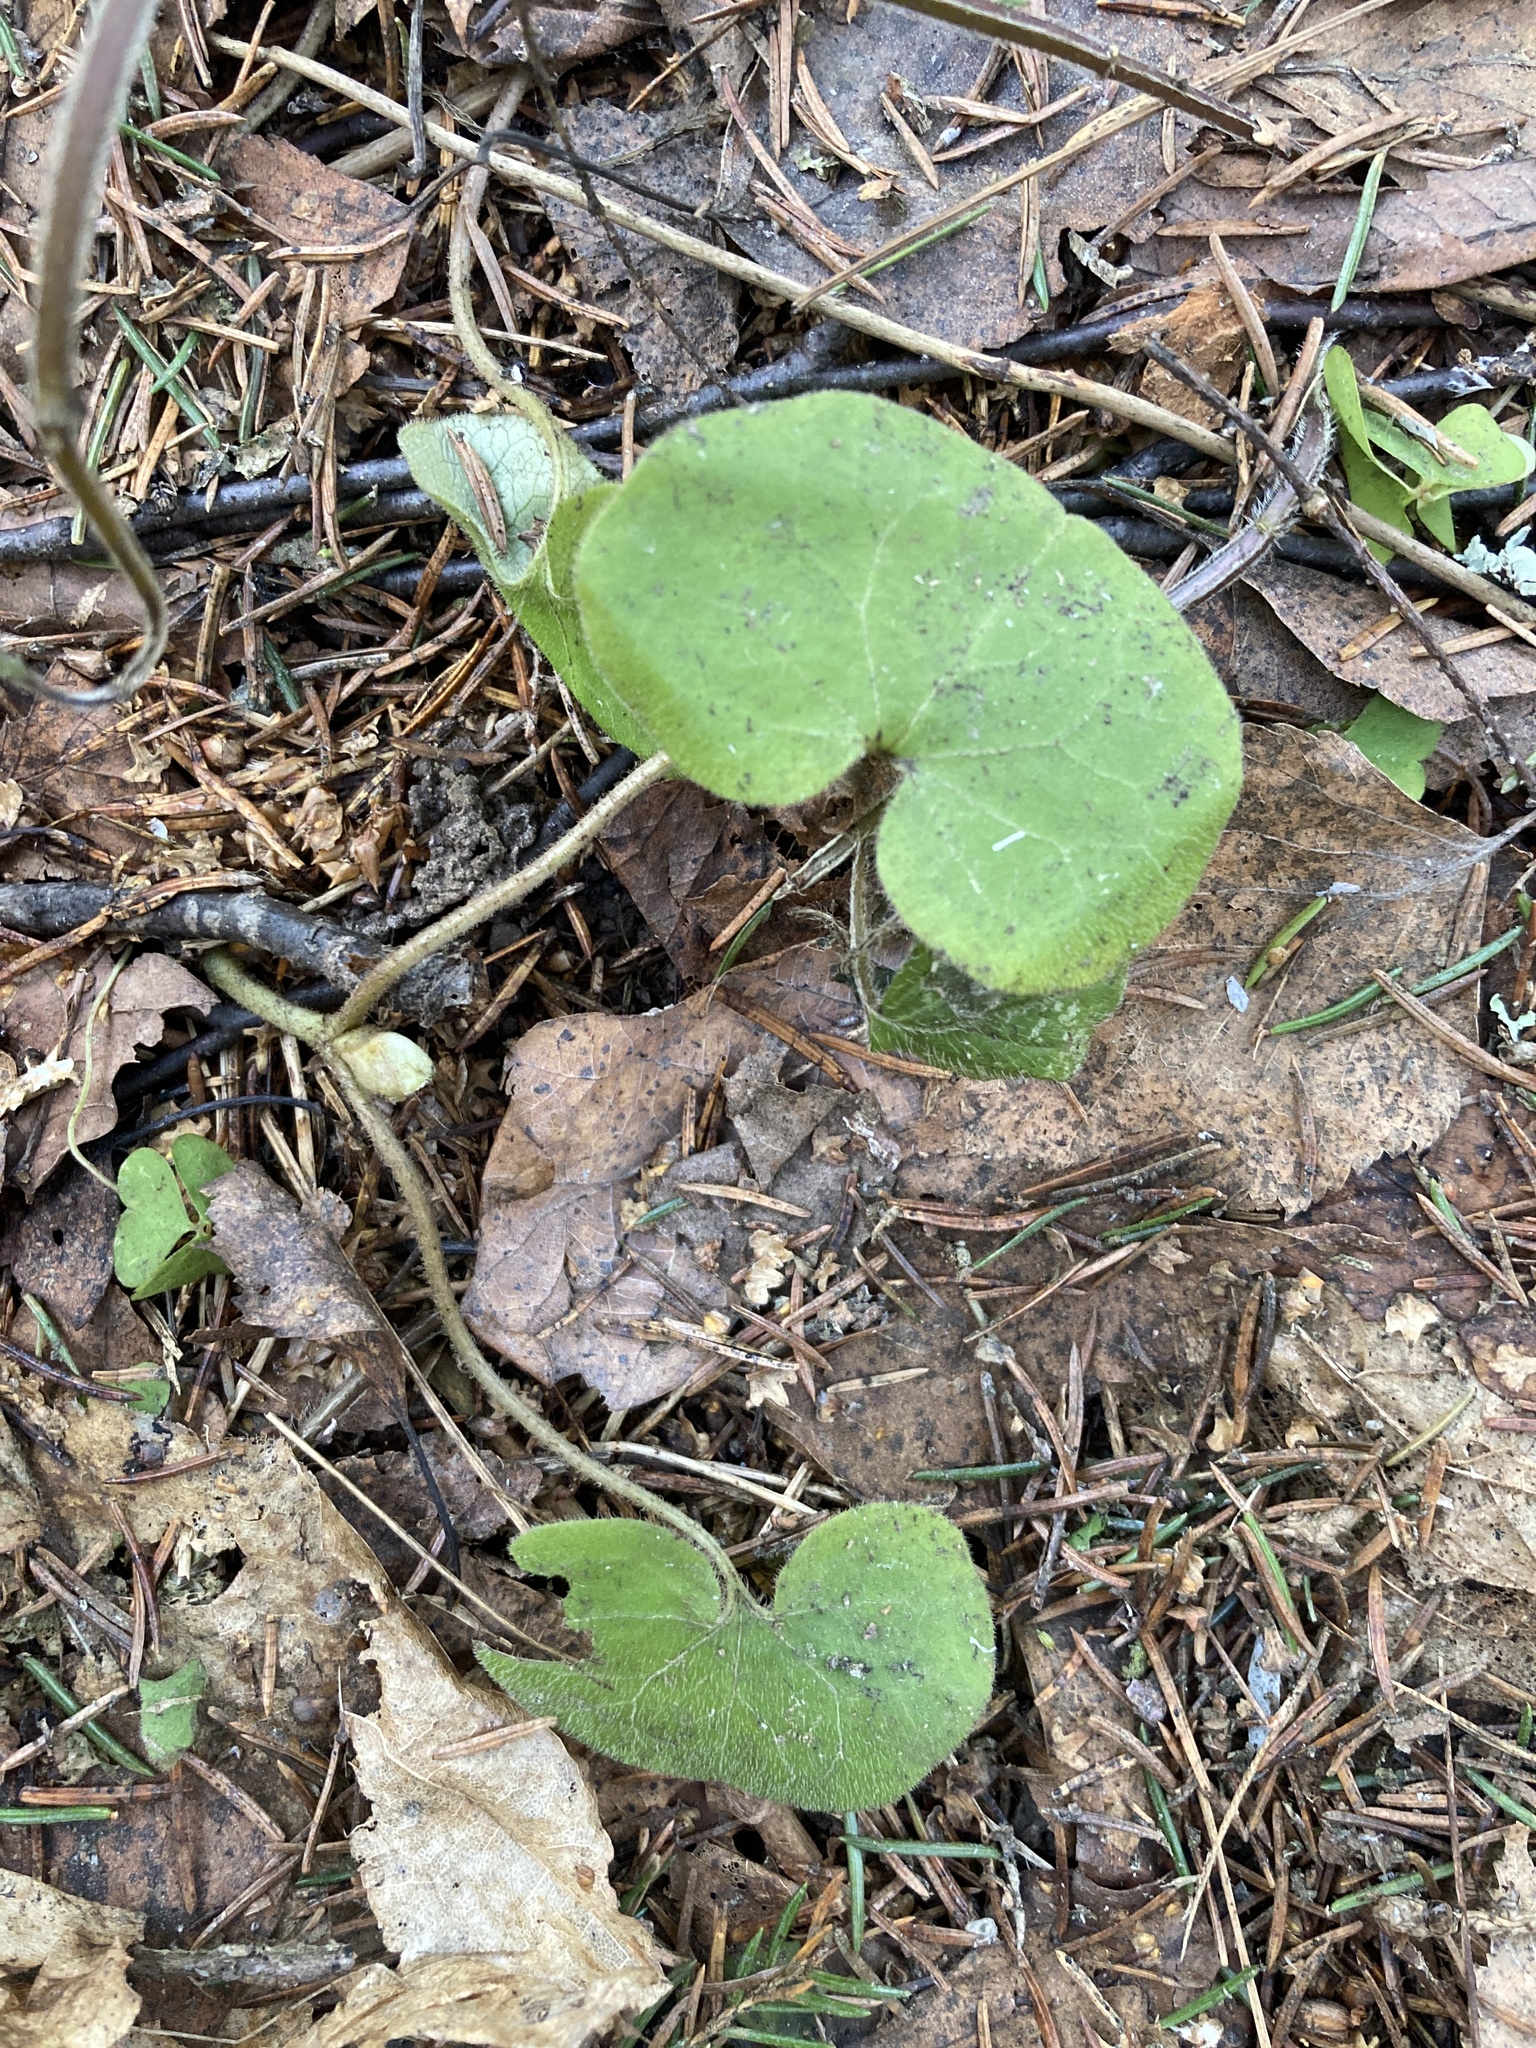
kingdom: Plantae
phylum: Tracheophyta
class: Magnoliopsida
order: Piperales
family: Aristolochiaceae
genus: Asarum
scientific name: Asarum europaeum
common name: Asarabacca
